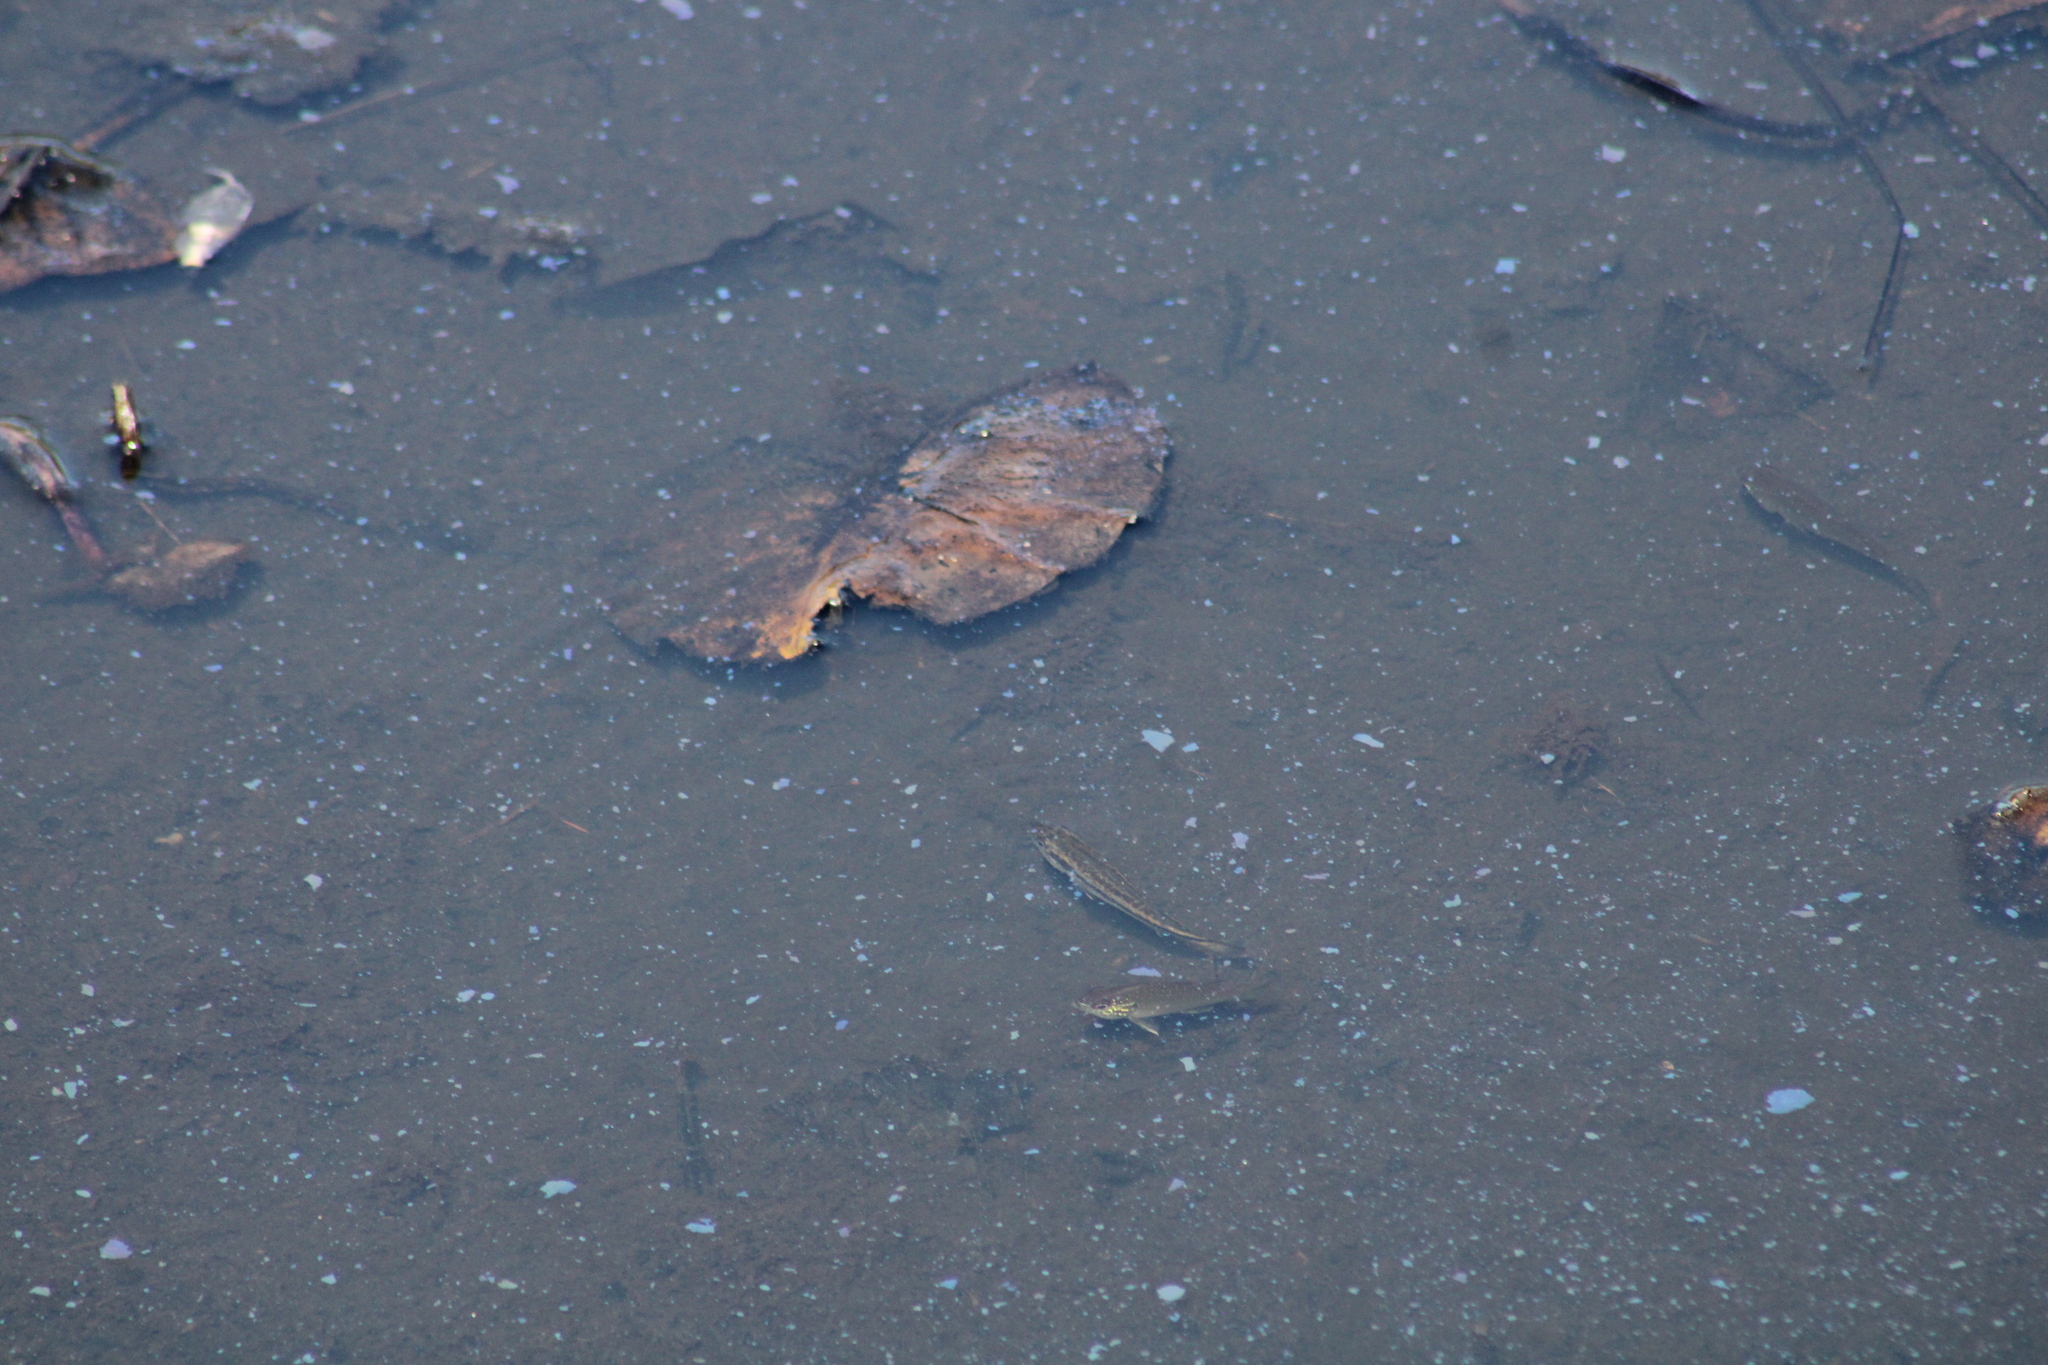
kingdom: Animalia
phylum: Chordata
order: Perciformes
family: Centrarchidae
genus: Micropterus
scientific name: Micropterus salmoides
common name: Largemouth bass
